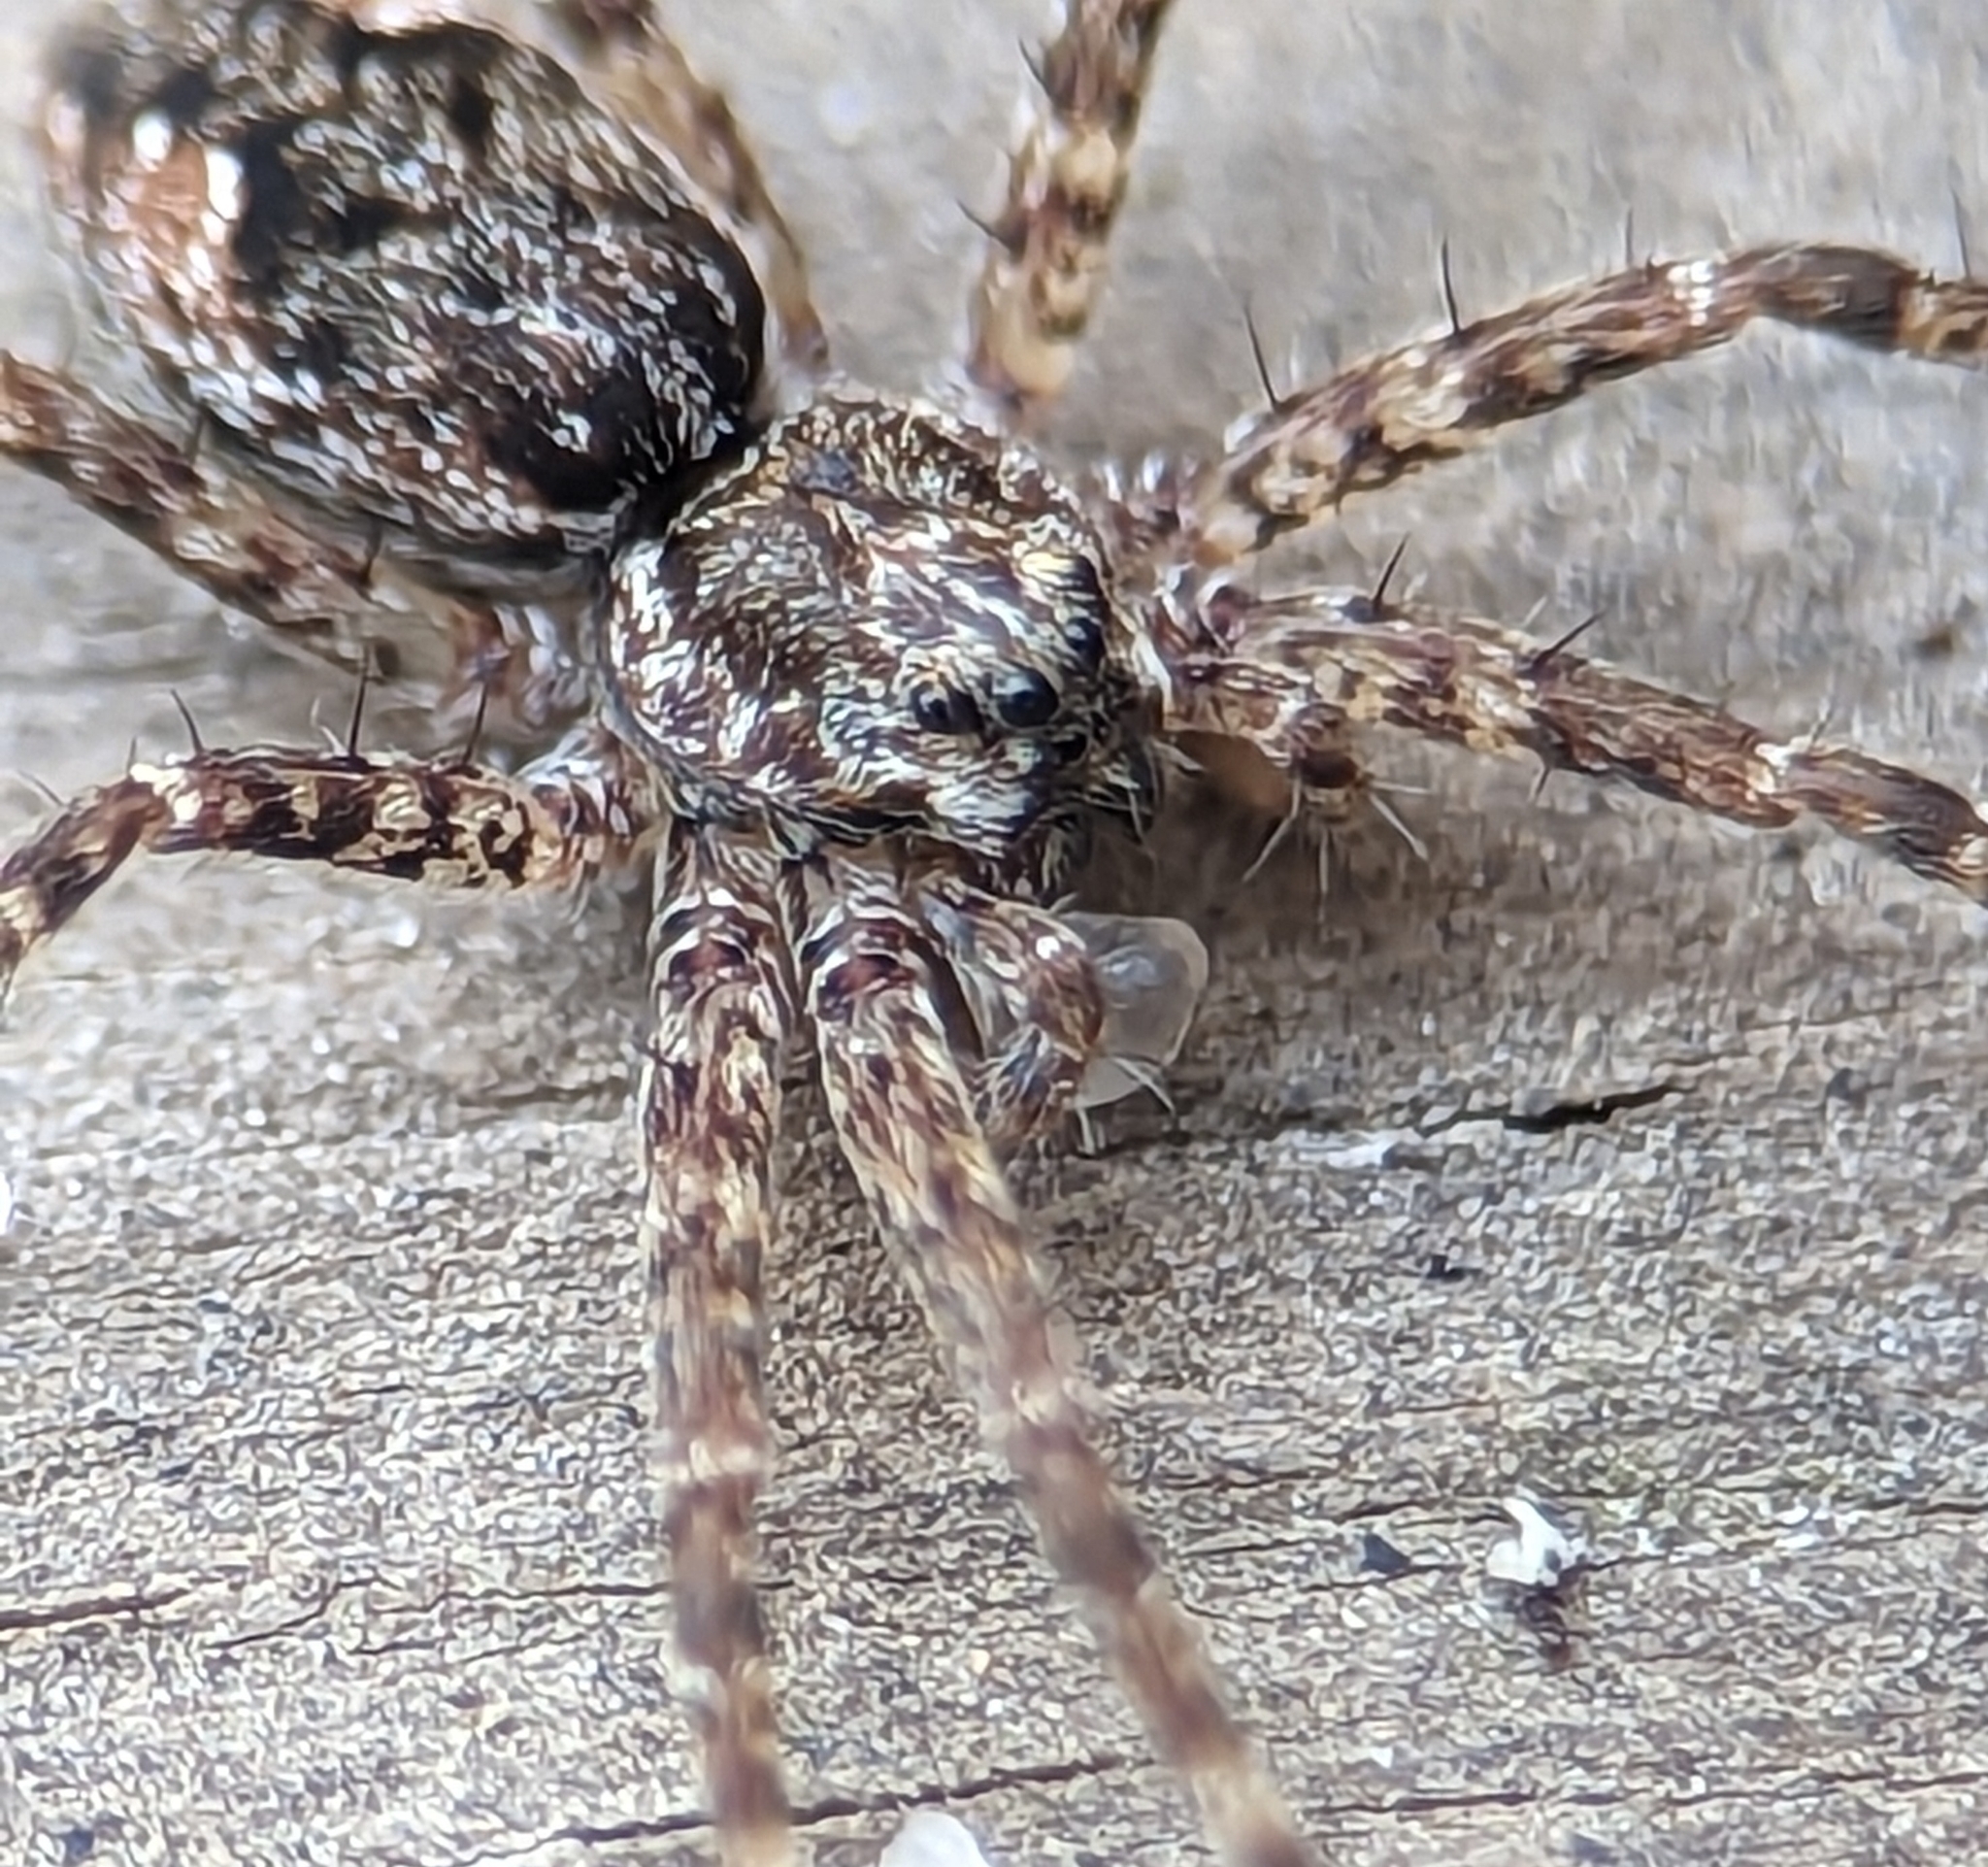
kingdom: Animalia
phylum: Arthropoda
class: Arachnida
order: Araneae
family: Pisauridae
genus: Dolomedes
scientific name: Dolomedes tenebrosus
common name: Dark fishing spider
